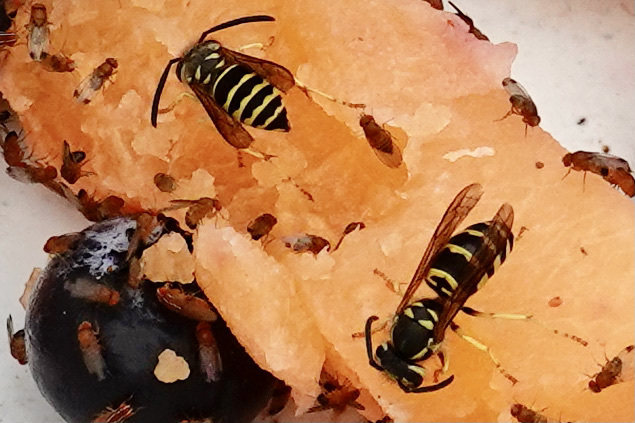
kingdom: Animalia
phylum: Arthropoda
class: Insecta
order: Hymenoptera
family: Vespidae
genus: Vespula
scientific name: Vespula maculifrons
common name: Eastern yellowjacket
